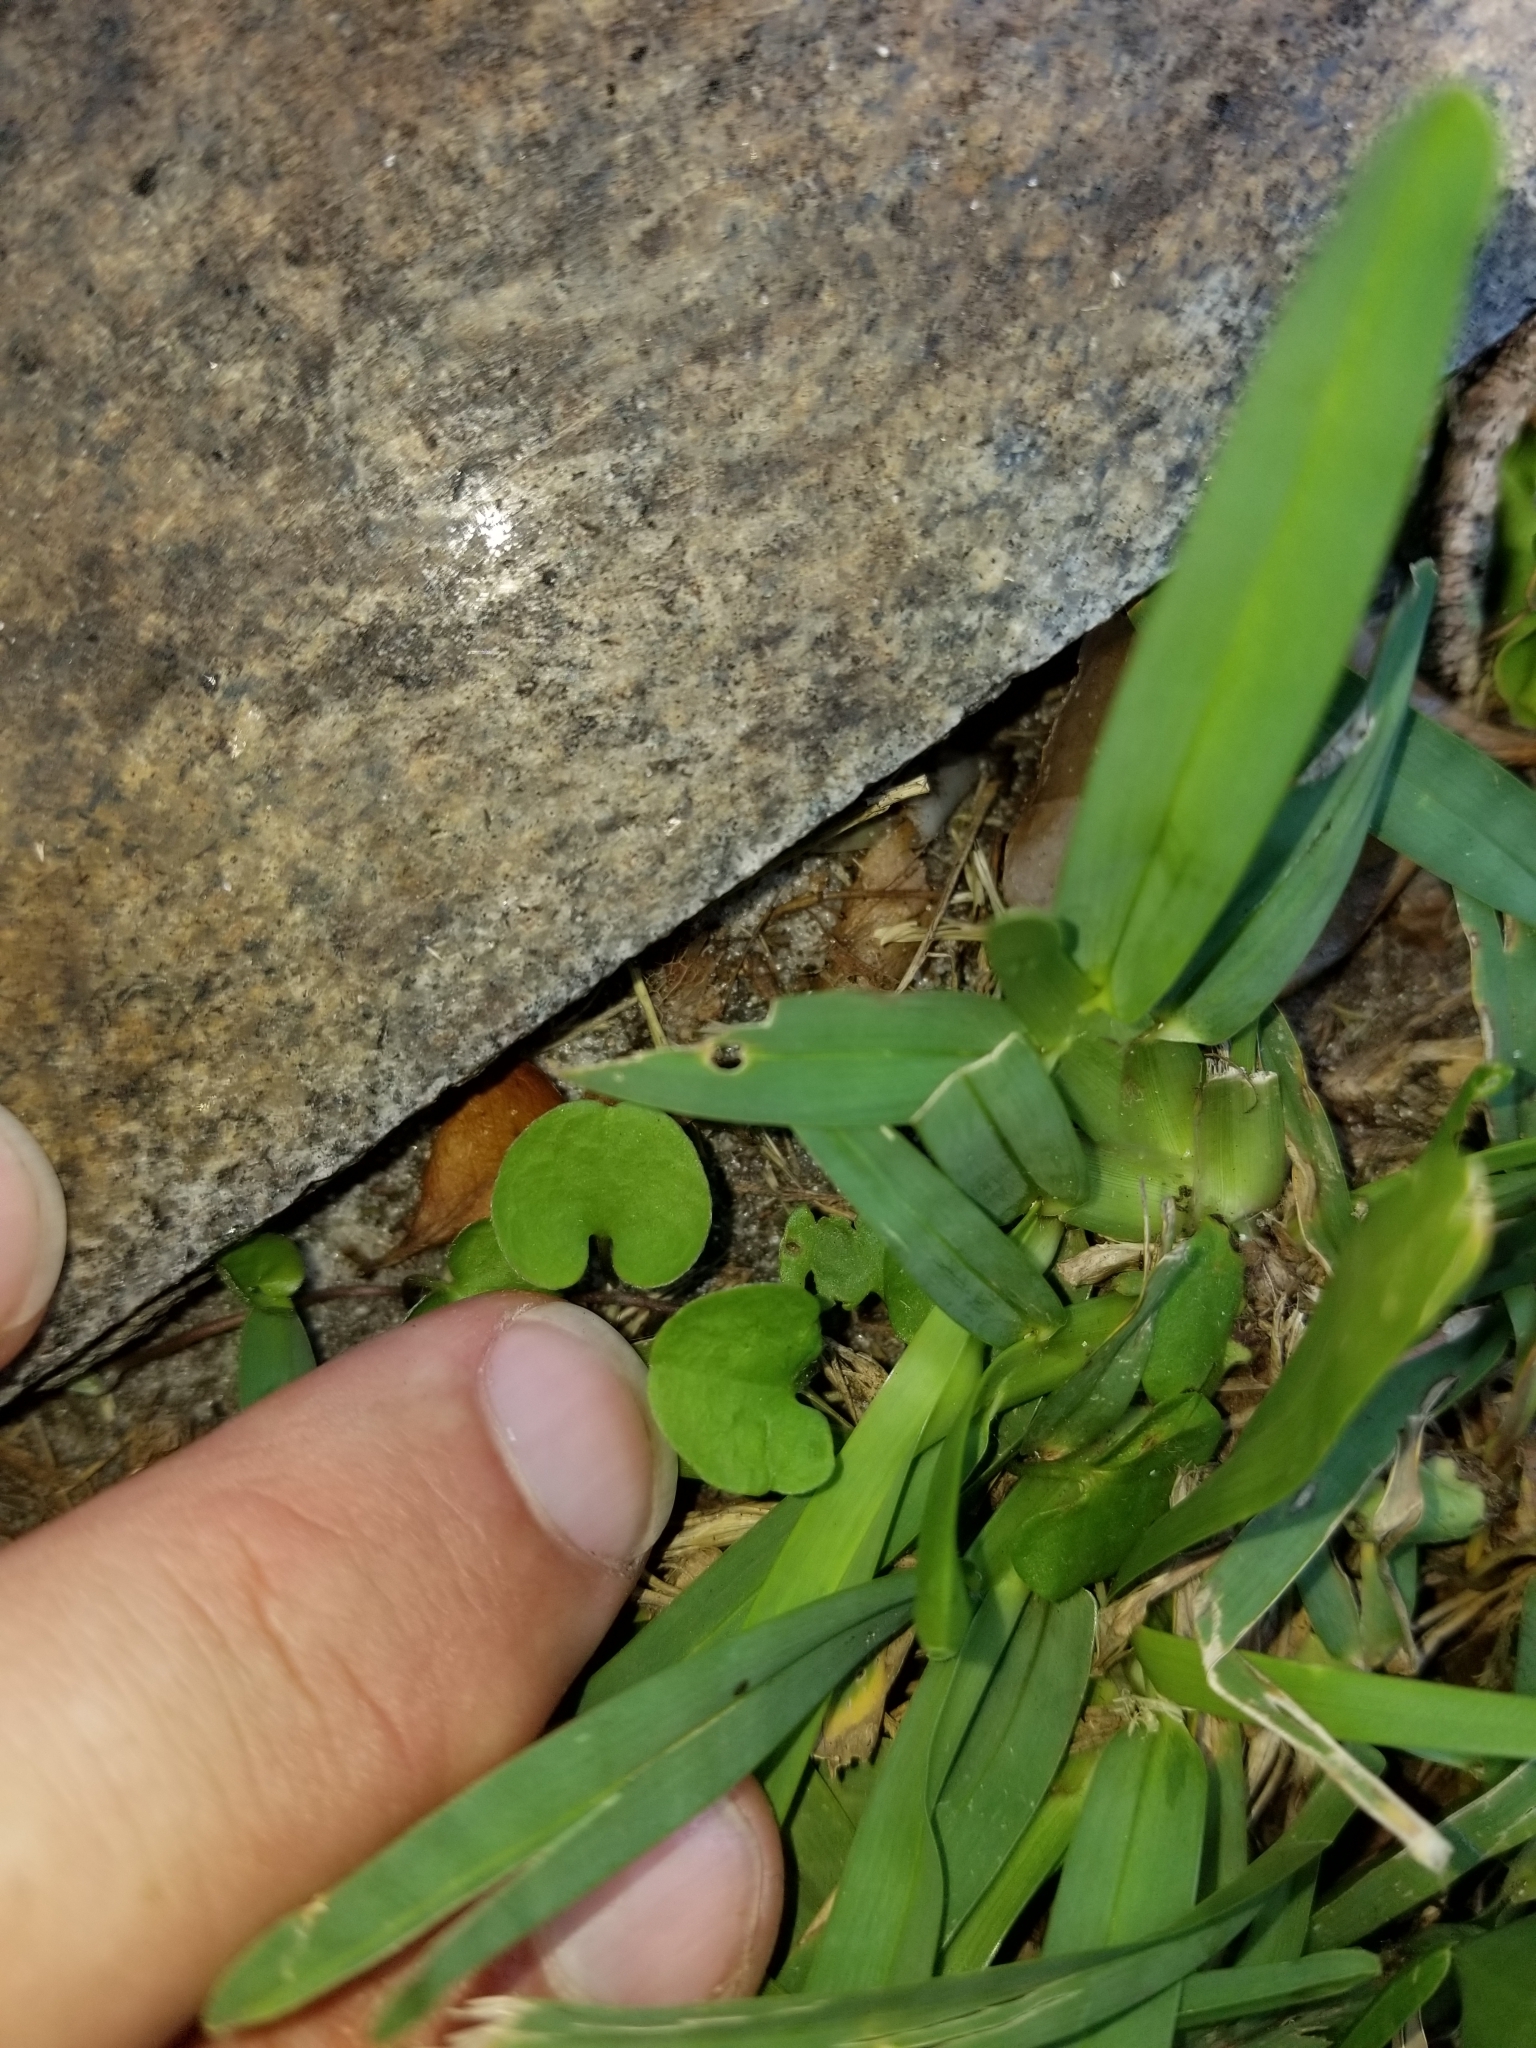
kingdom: Plantae
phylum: Tracheophyta
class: Magnoliopsida
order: Solanales
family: Convolvulaceae
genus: Dichondra
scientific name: Dichondra carolinensis
